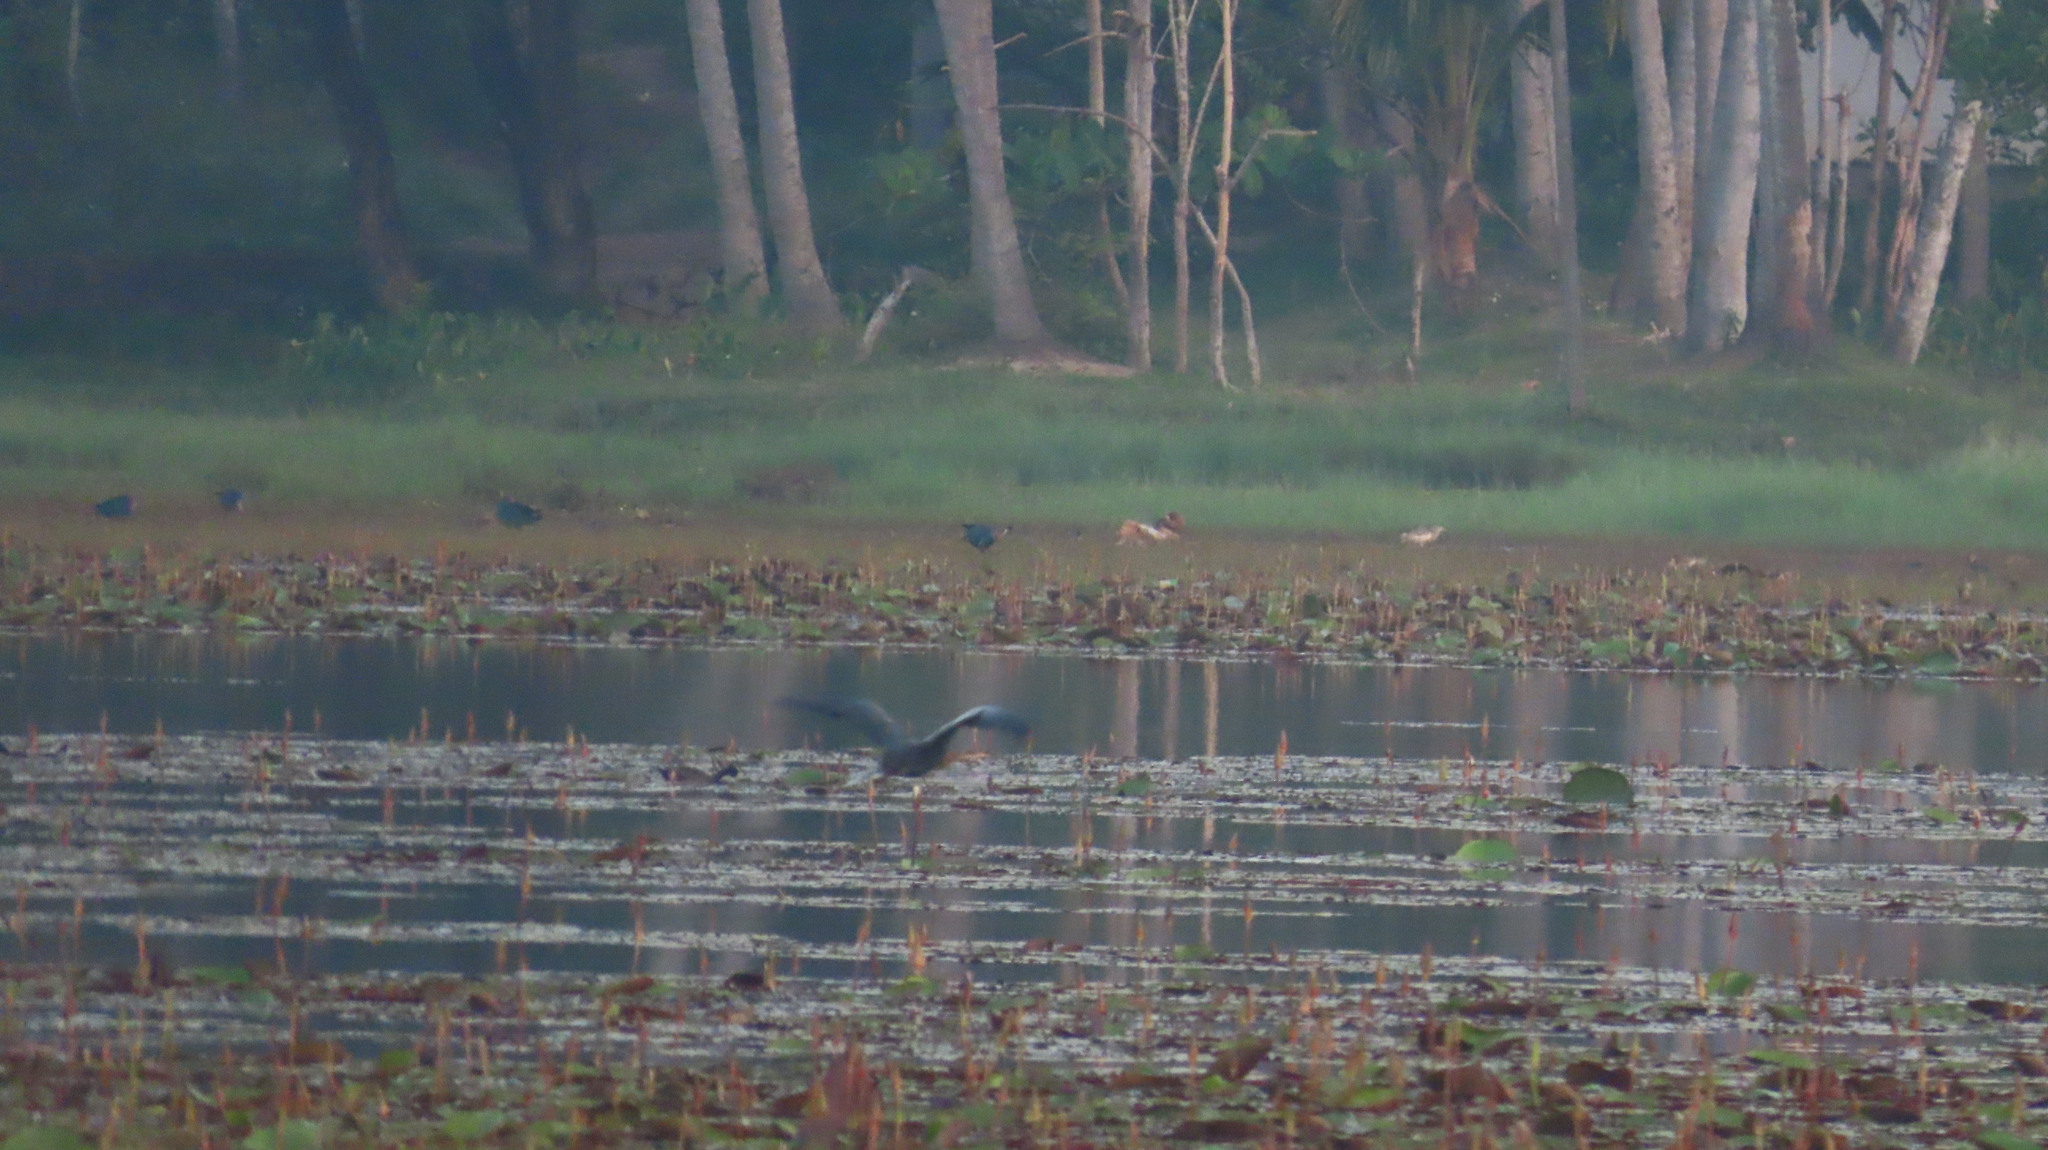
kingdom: Animalia
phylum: Chordata
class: Aves
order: Suliformes
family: Anhingidae
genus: Anhinga
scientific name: Anhinga melanogaster
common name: Oriental darter
